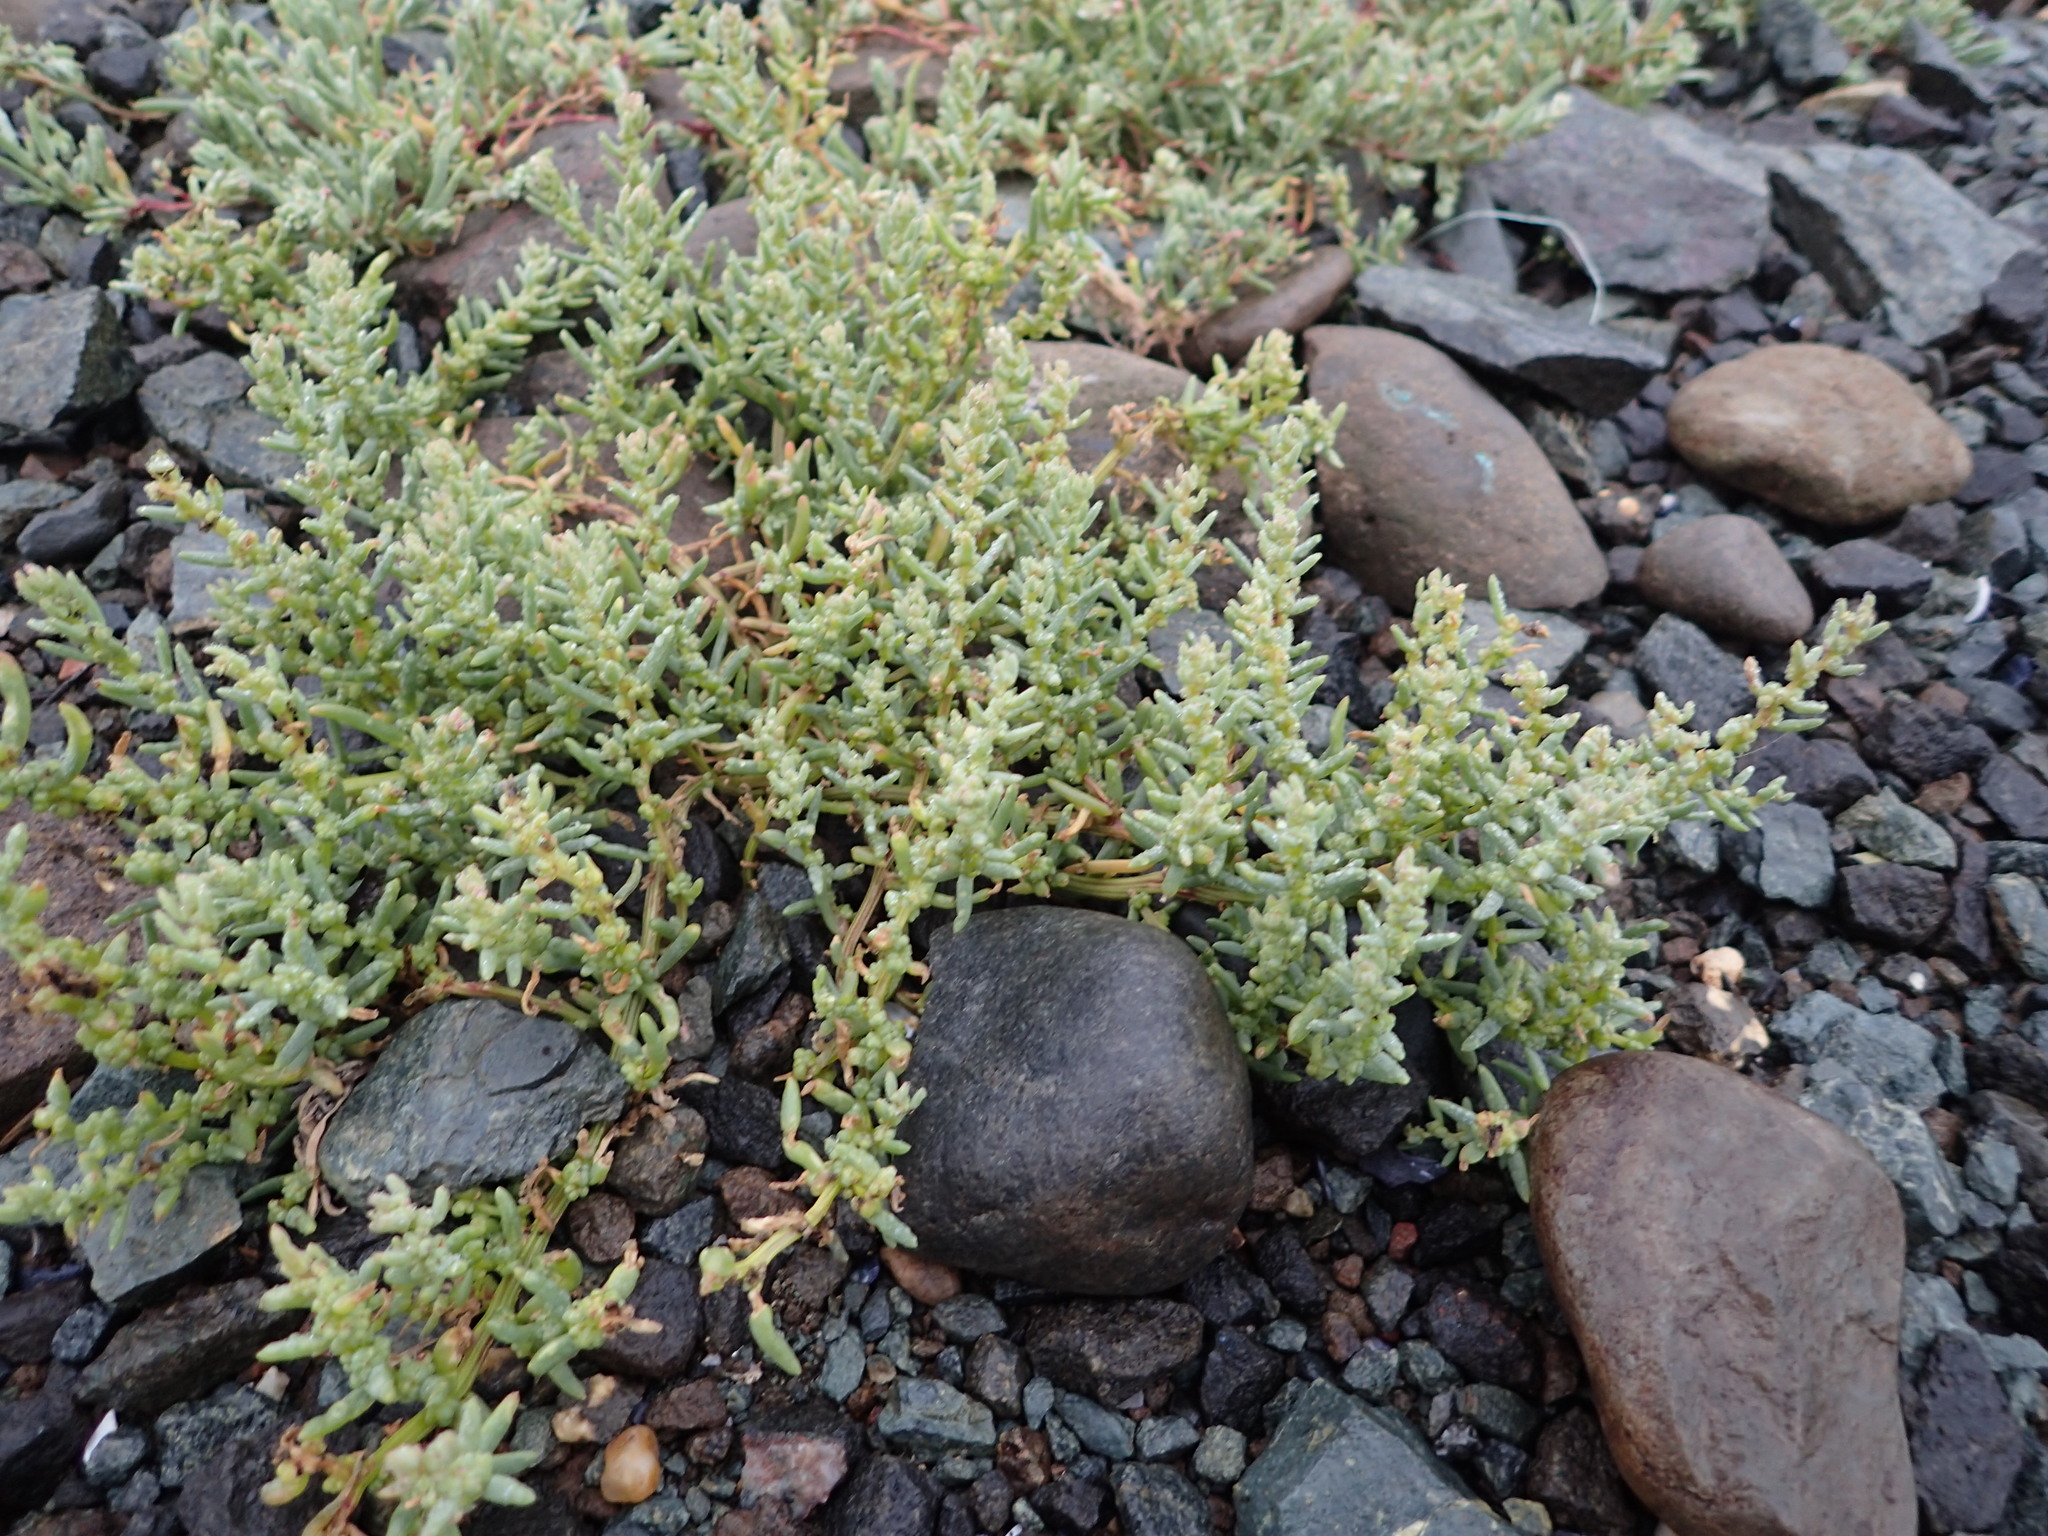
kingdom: Plantae
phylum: Tracheophyta
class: Magnoliopsida
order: Caryophyllales
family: Amaranthaceae
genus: Suaeda
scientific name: Suaeda maritima
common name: Annual sea-blite
